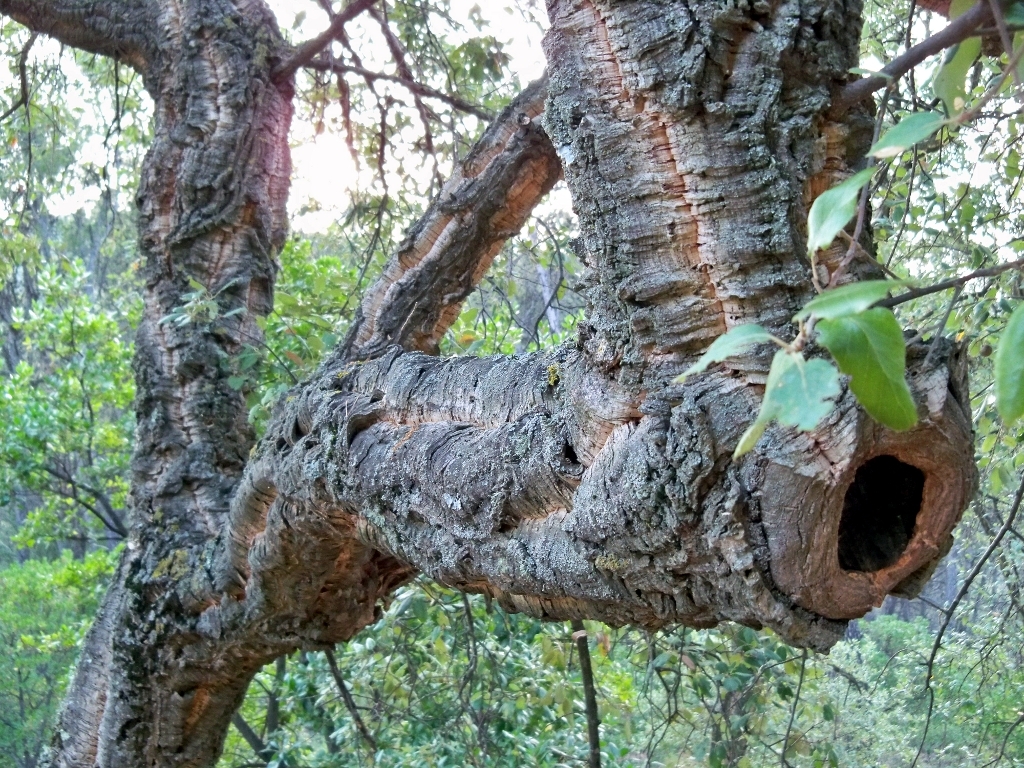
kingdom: Plantae
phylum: Tracheophyta
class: Magnoliopsida
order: Fagales
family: Fagaceae
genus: Quercus
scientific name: Quercus suber
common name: Cork oak
